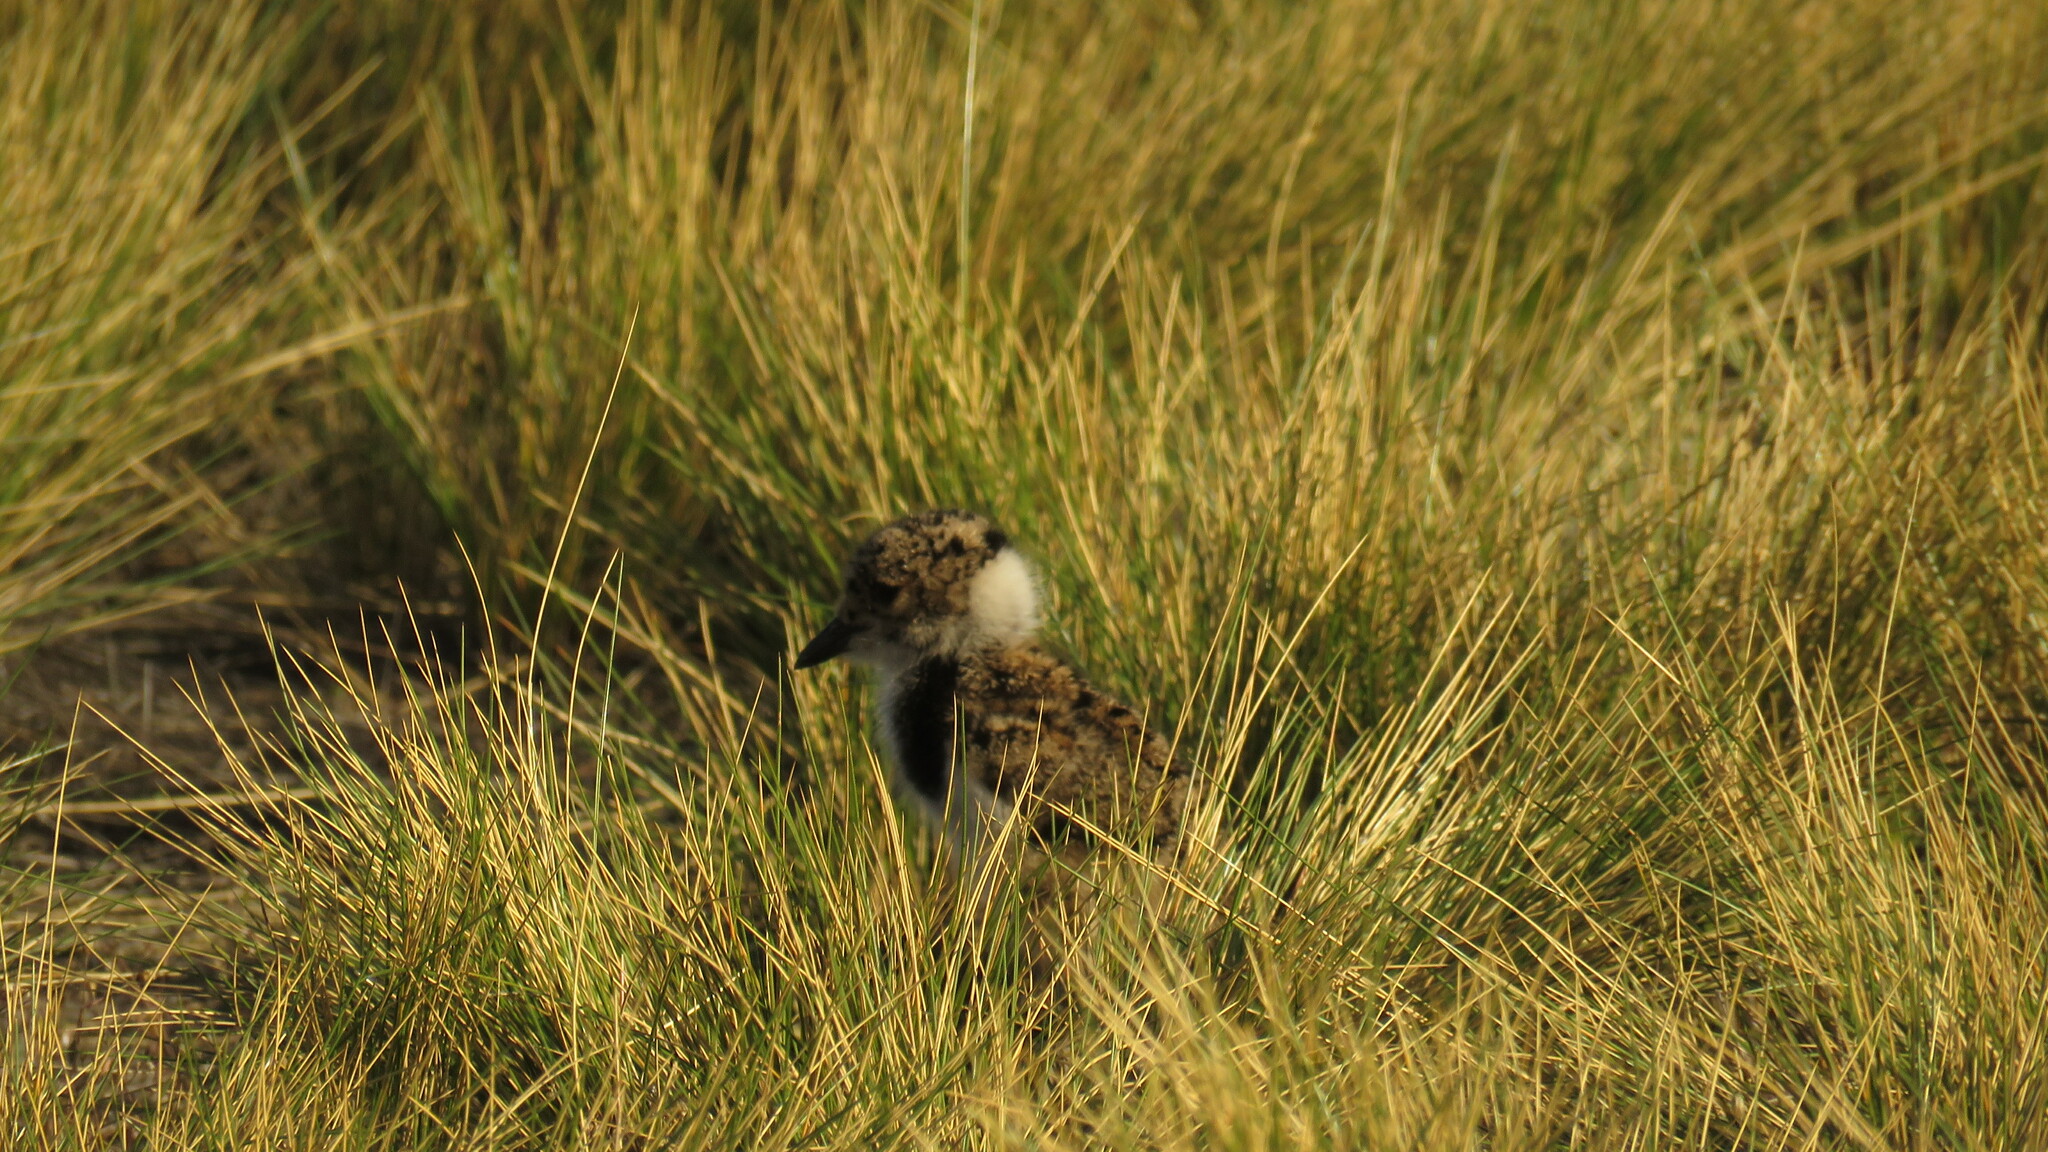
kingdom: Animalia
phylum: Chordata
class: Aves
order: Charadriiformes
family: Charadriidae
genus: Vanellus
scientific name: Vanellus chilensis
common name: Southern lapwing
